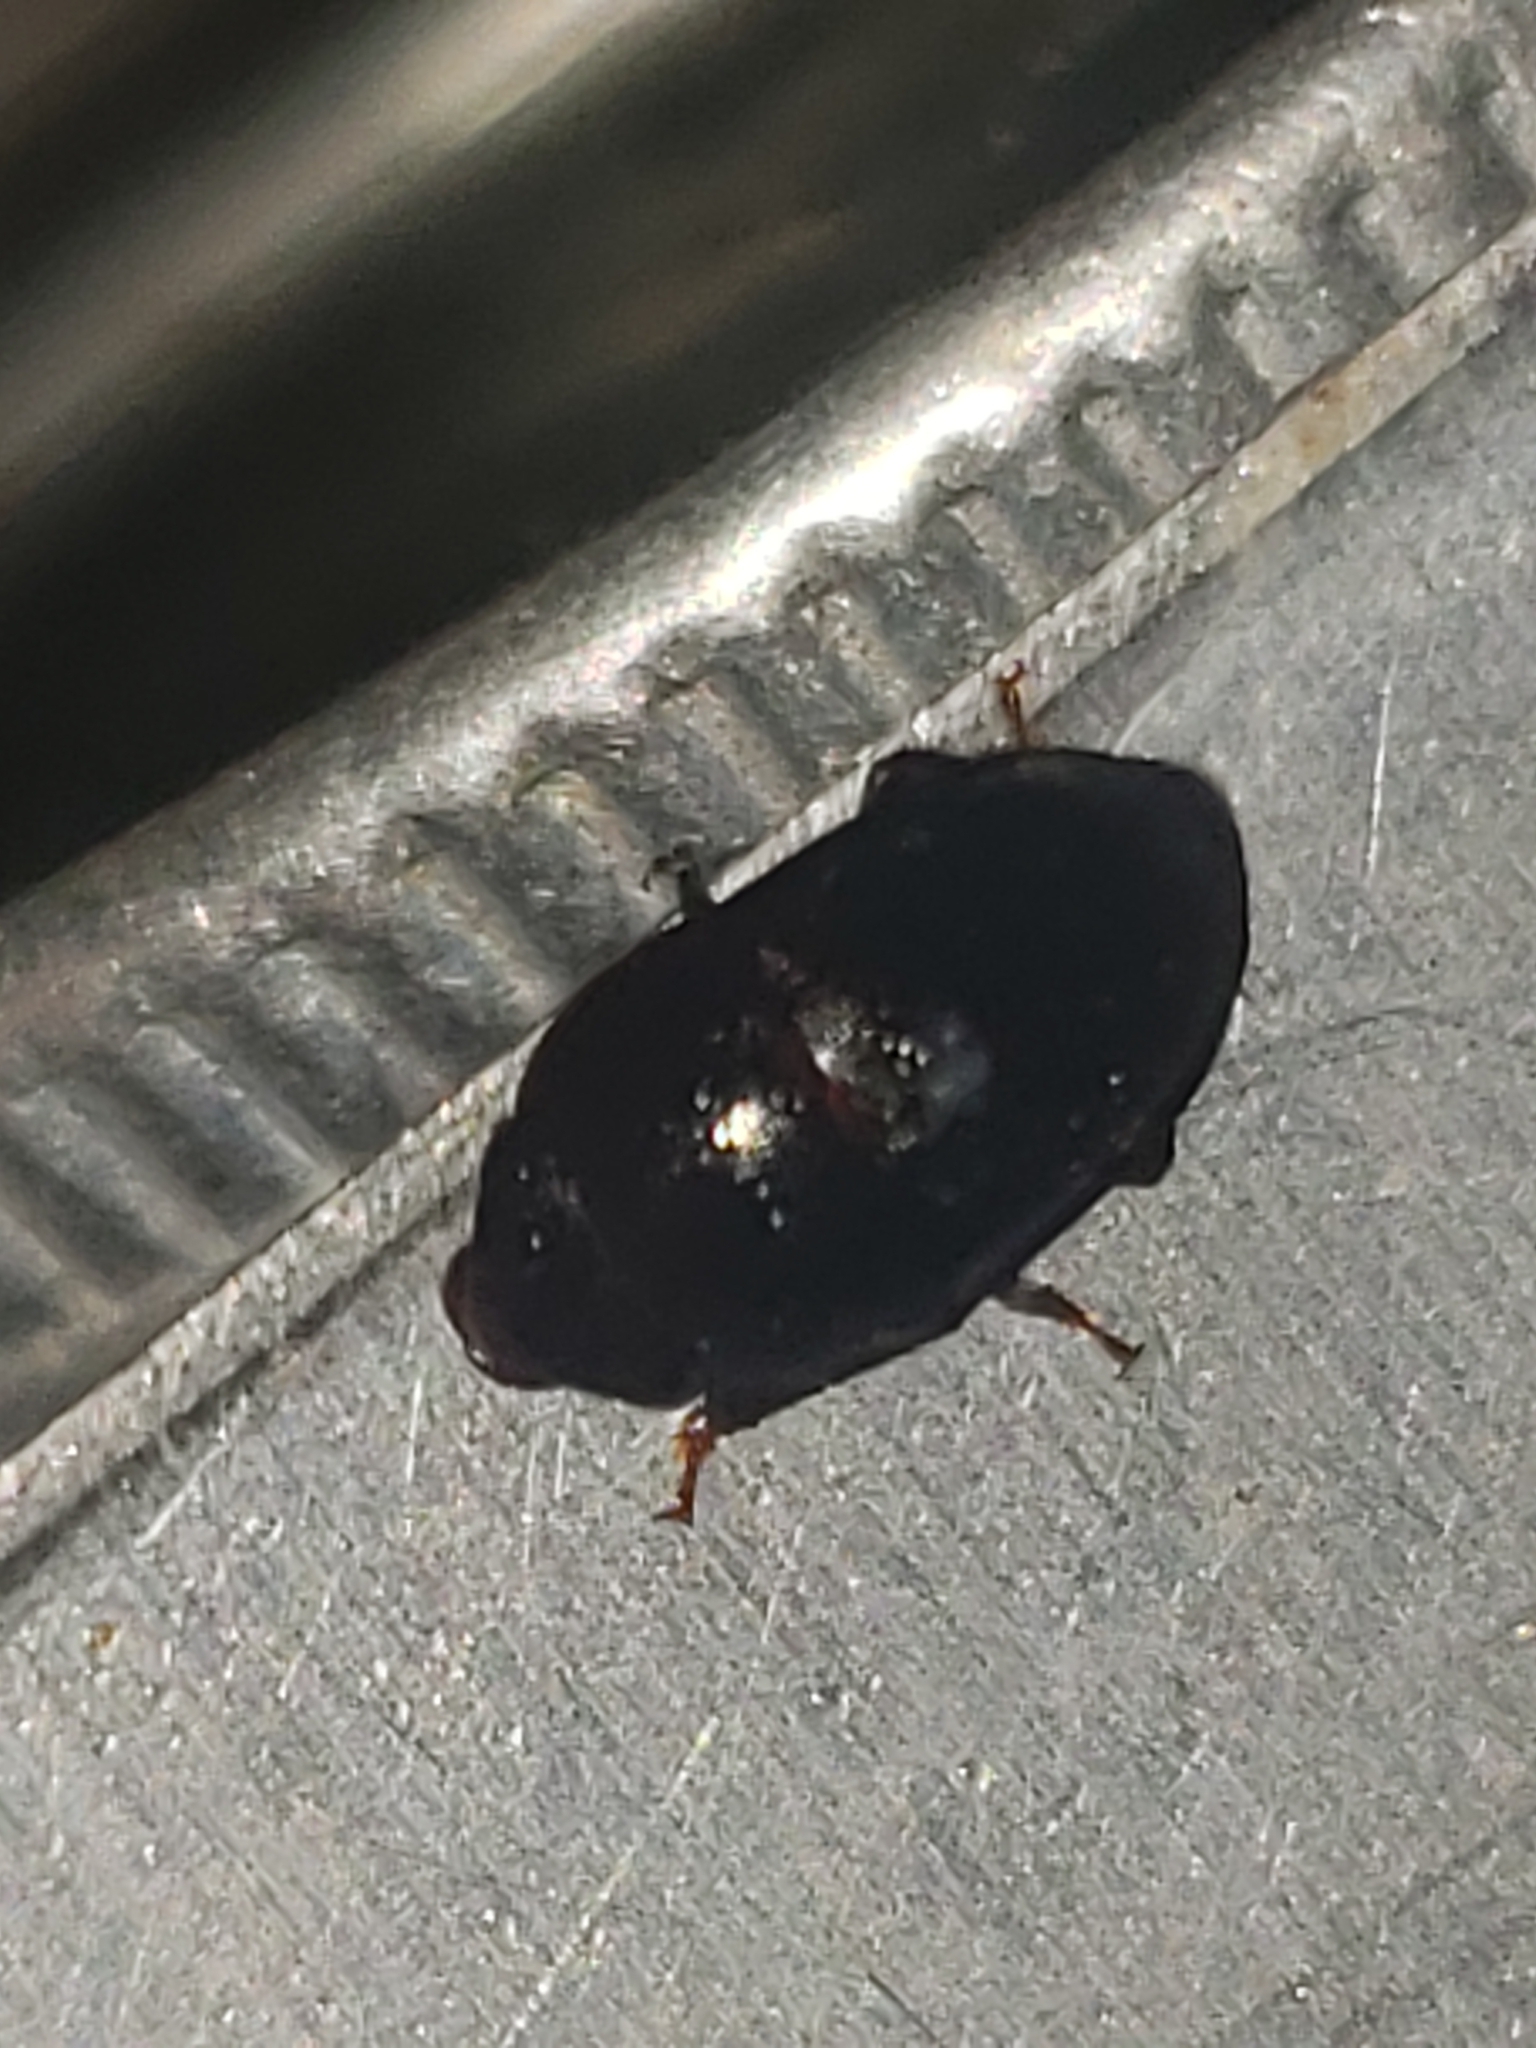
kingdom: Animalia
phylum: Arthropoda
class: Insecta
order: Coleoptera
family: Nitidulidae
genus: Cryptarcha
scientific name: Cryptarcha ampla
